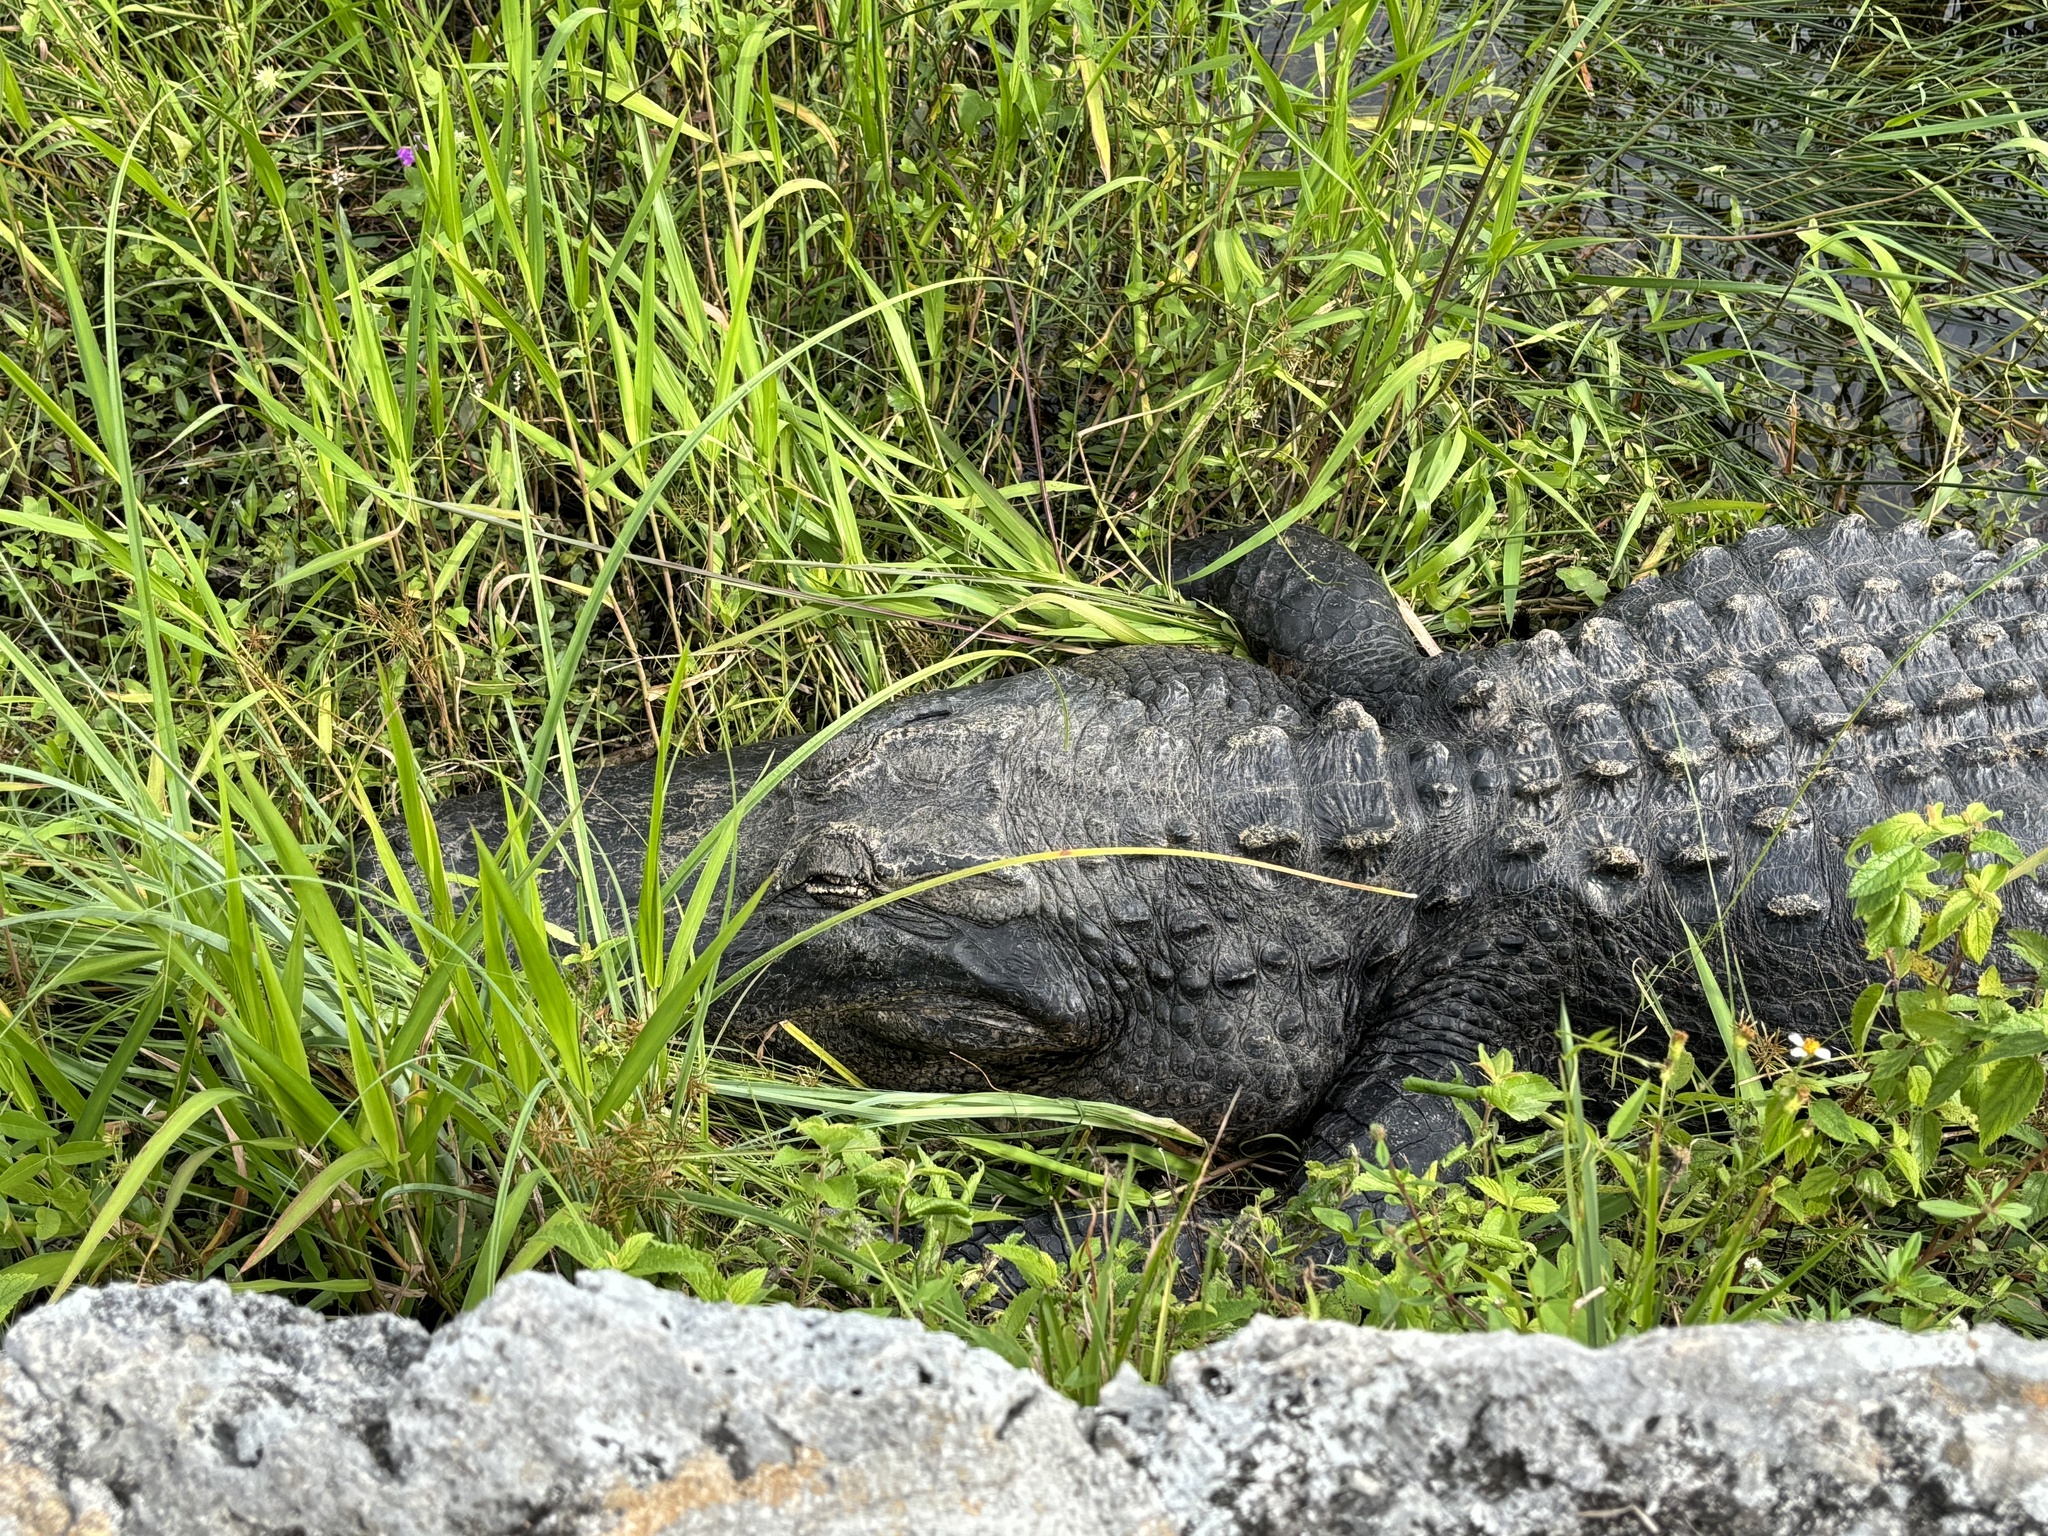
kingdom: Animalia
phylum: Chordata
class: Crocodylia
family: Alligatoridae
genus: Alligator
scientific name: Alligator mississippiensis
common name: American alligator
